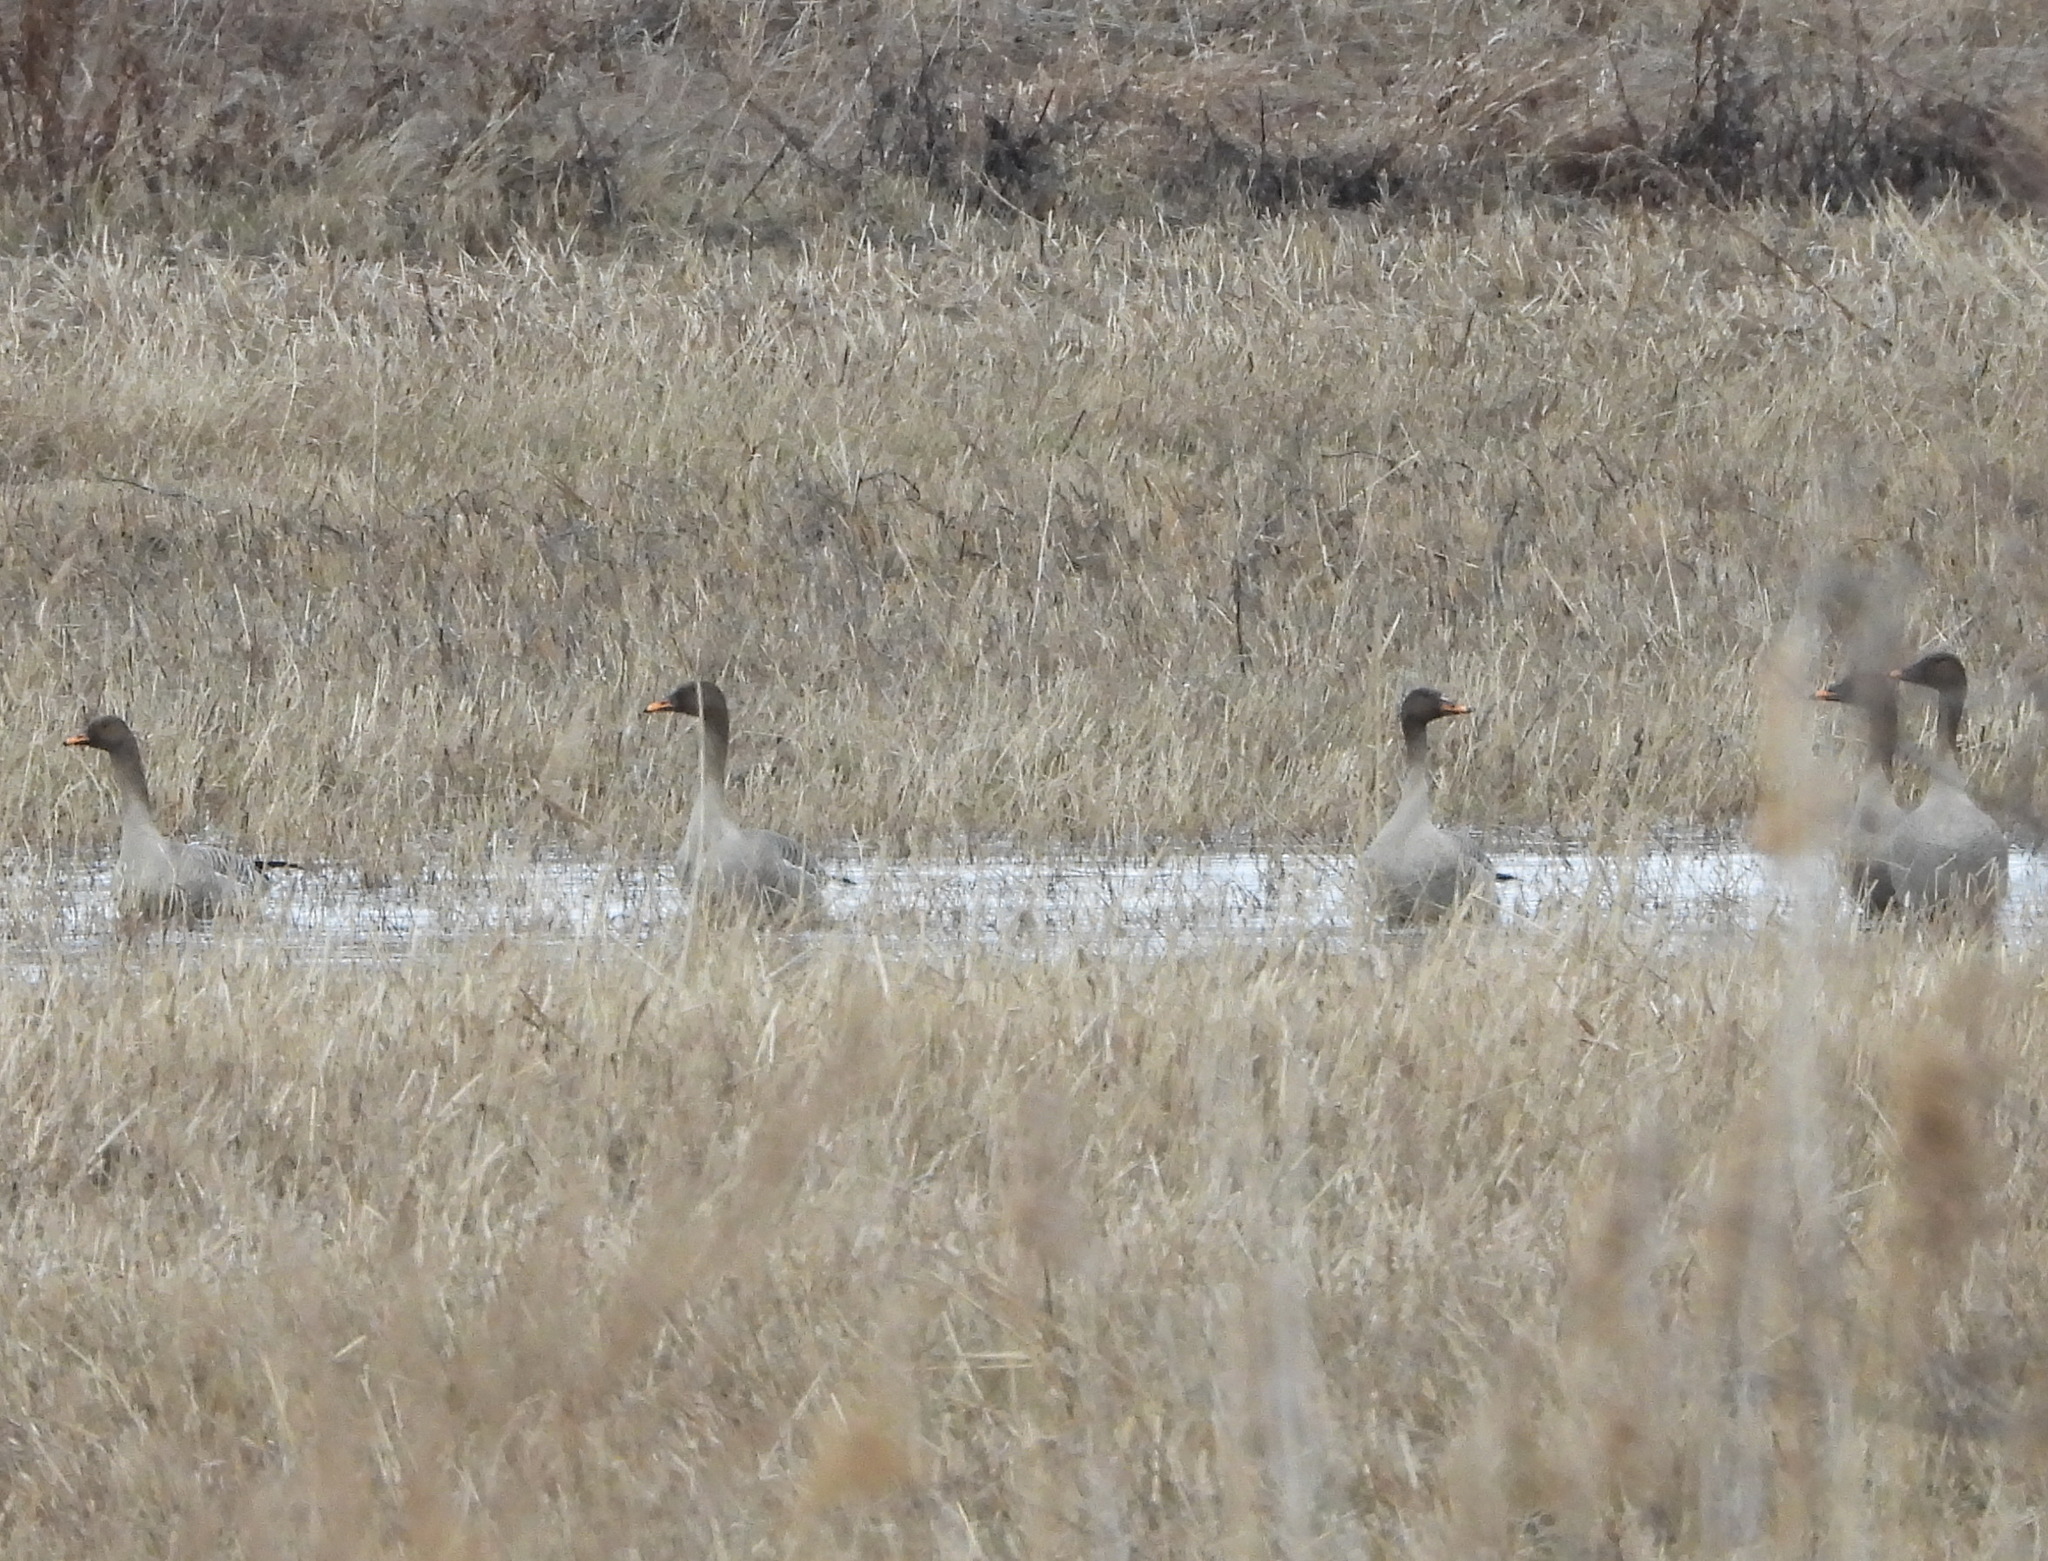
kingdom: Animalia
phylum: Chordata
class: Aves
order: Anseriformes
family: Anatidae
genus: Anser
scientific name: Anser fabalis
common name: Bean goose
